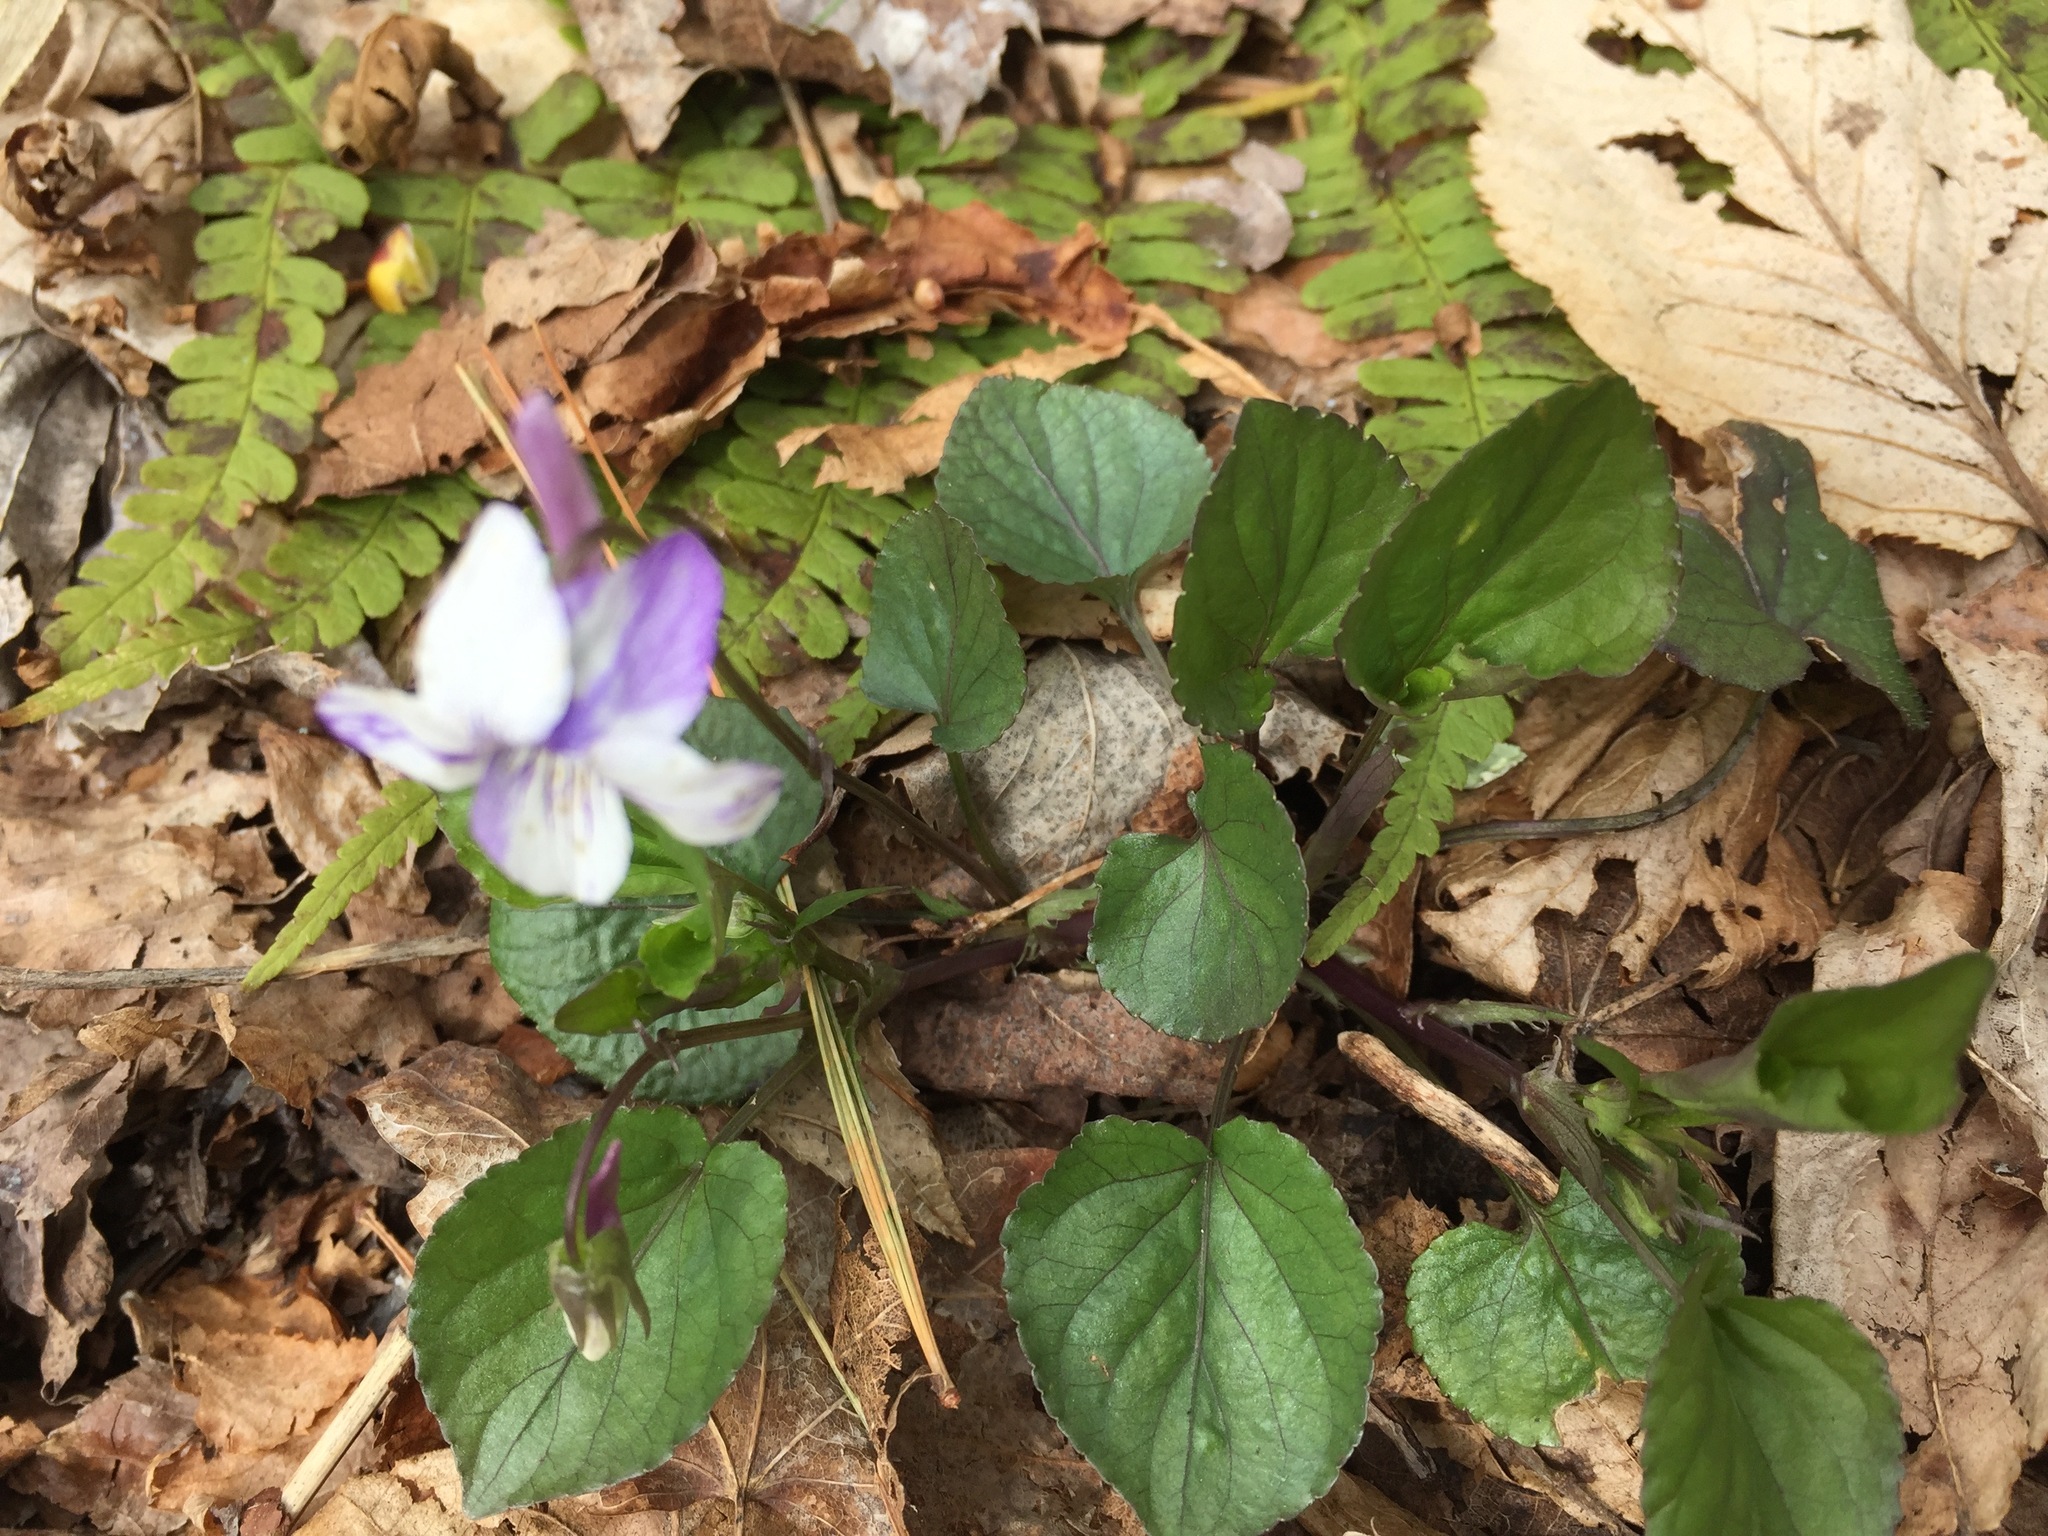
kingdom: Plantae
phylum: Tracheophyta
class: Magnoliopsida
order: Malpighiales
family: Violaceae
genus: Viola
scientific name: Viola rostrata
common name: Long-spur violet
